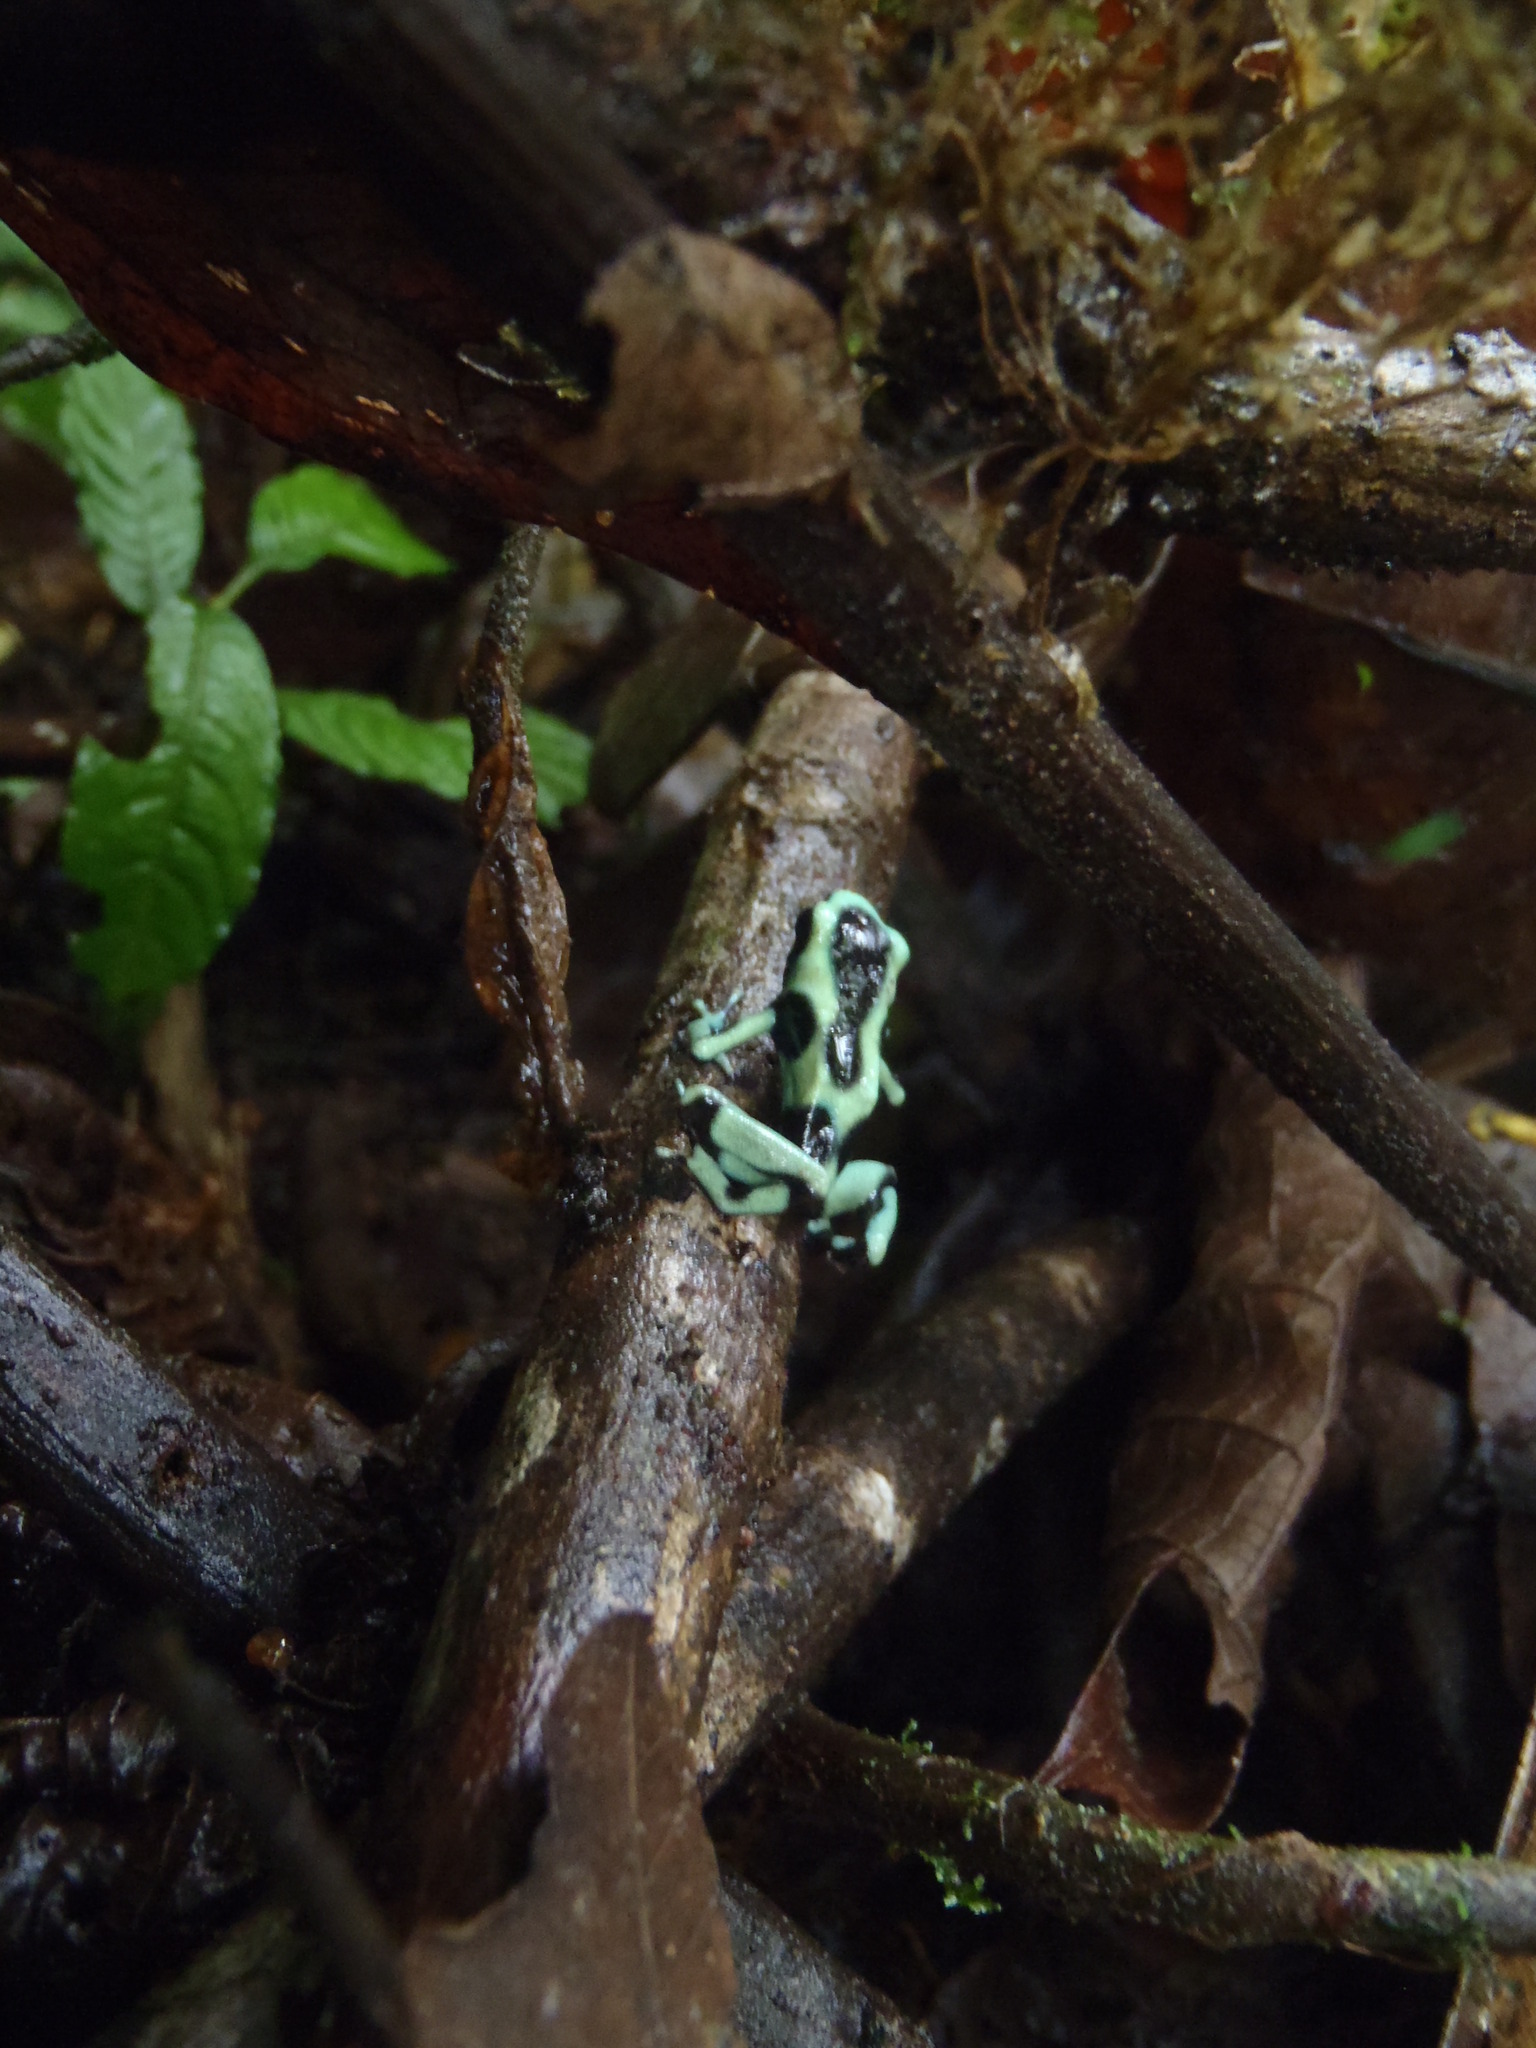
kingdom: Animalia
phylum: Chordata
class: Amphibia
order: Anura
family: Dendrobatidae
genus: Dendrobates
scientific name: Dendrobates auratus
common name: Green and black poison dart frog
